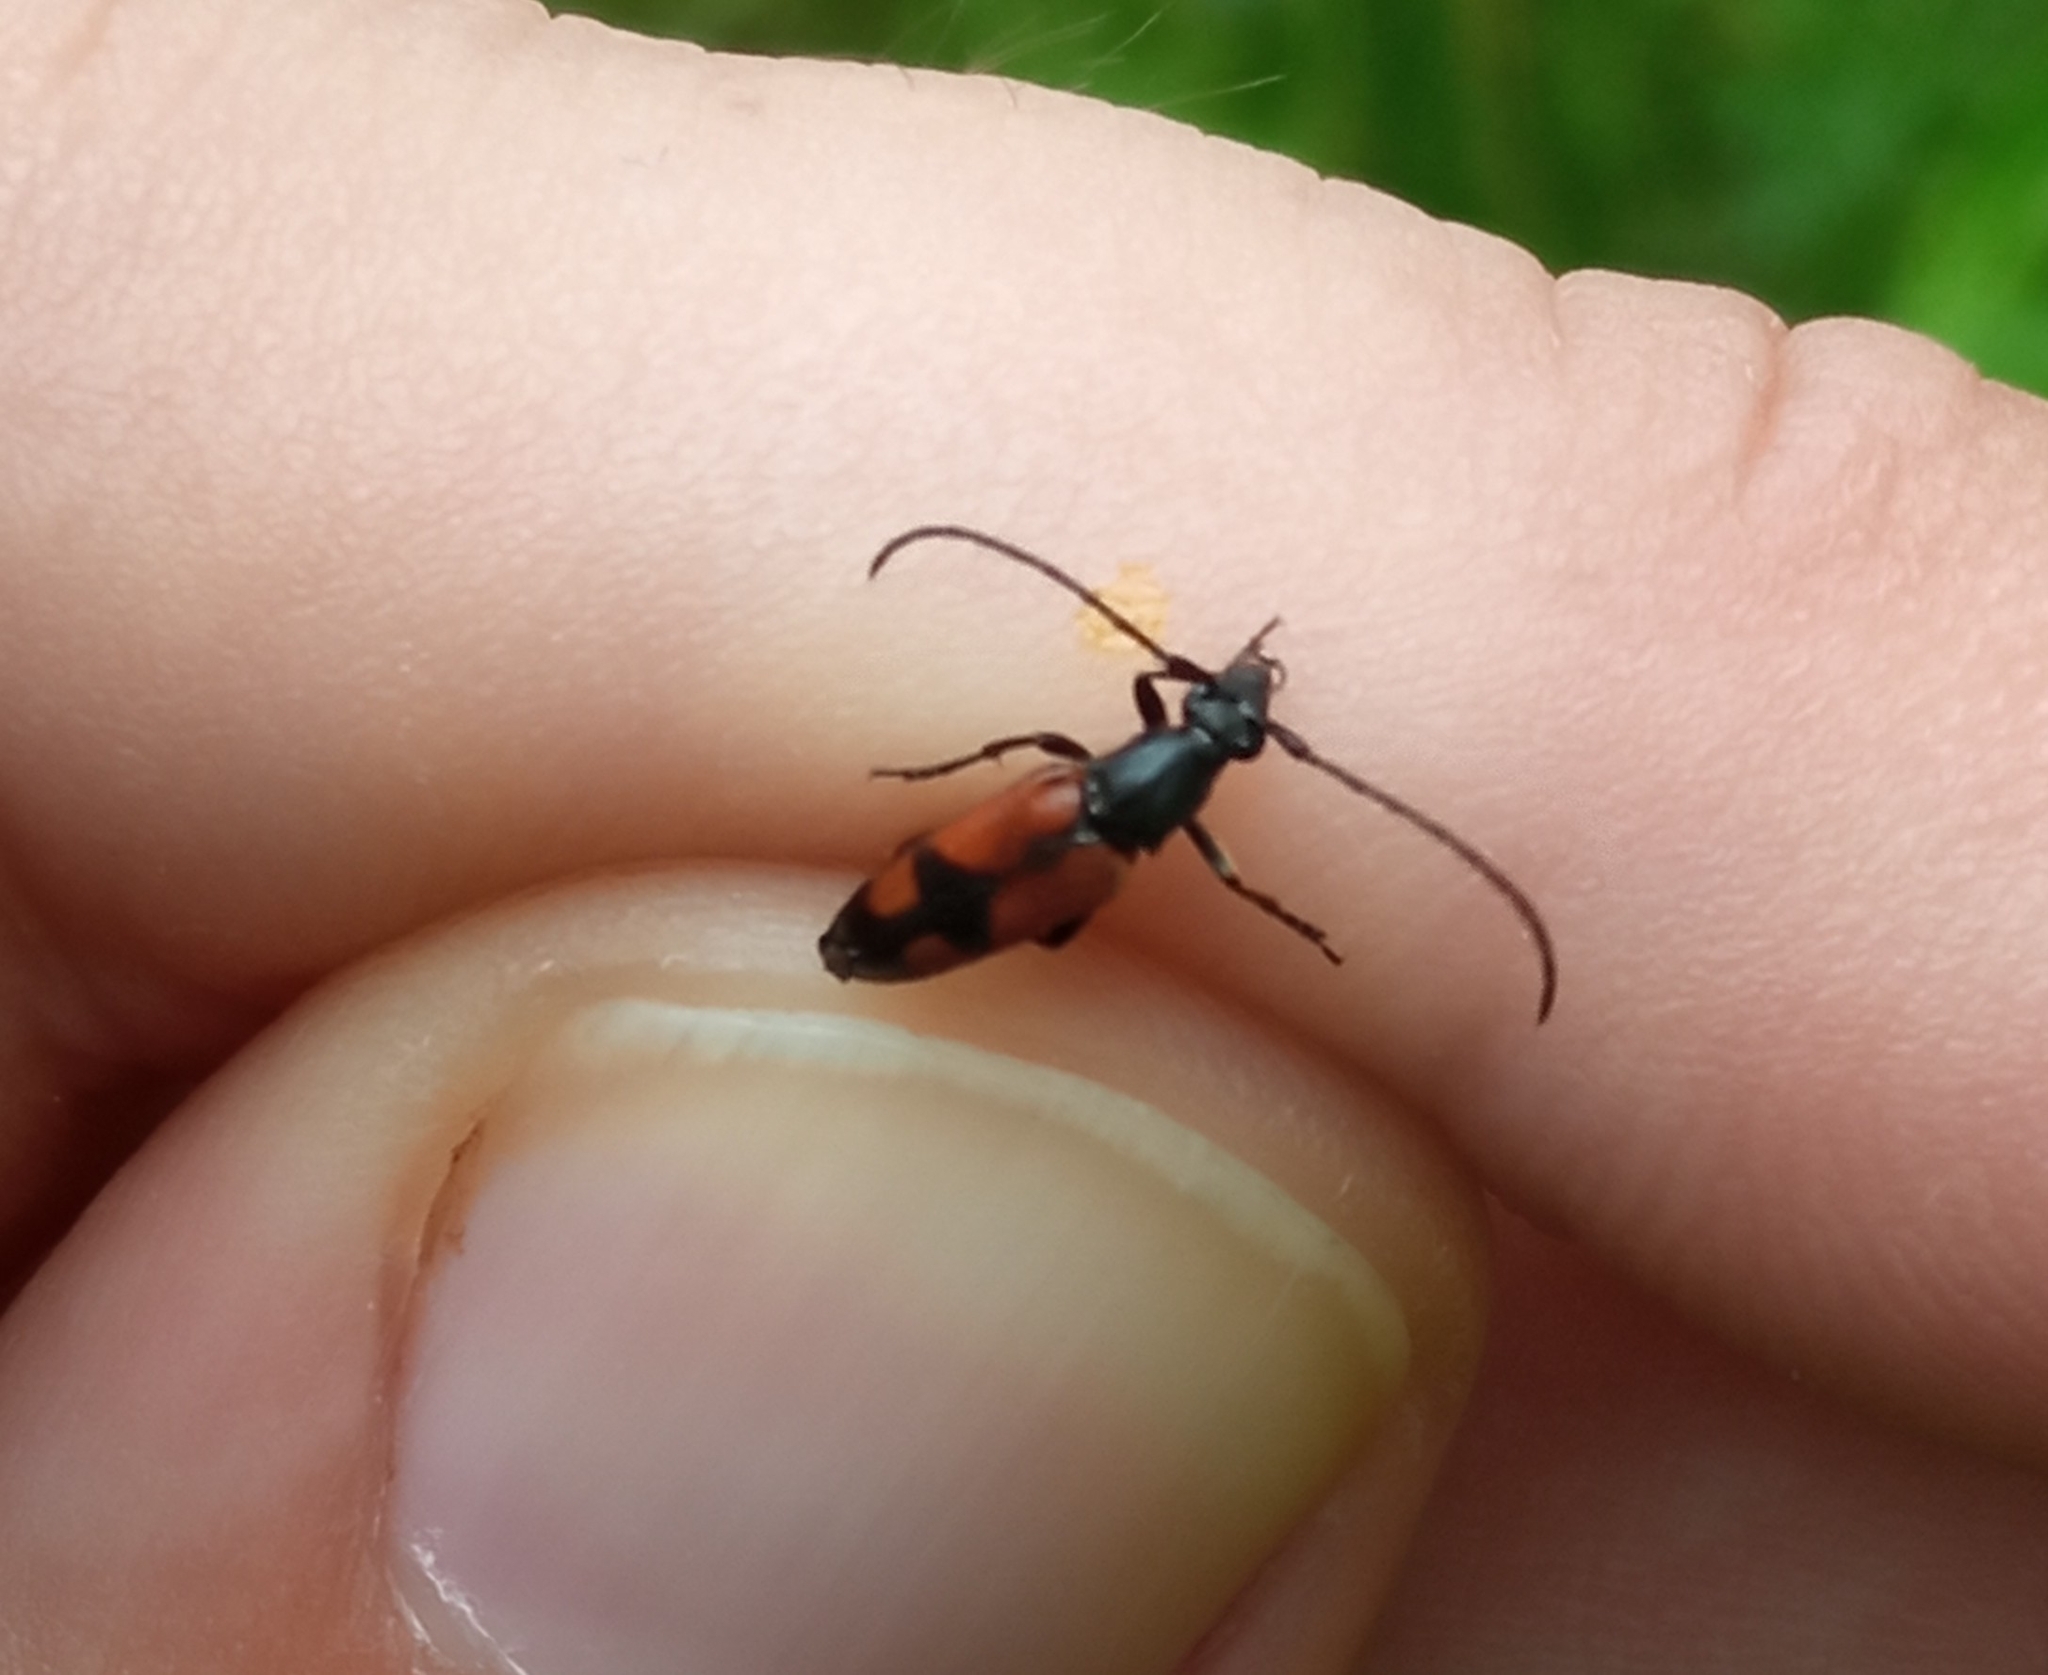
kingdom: Animalia
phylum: Arthropoda
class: Insecta
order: Coleoptera
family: Cerambycidae
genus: Stenurella
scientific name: Stenurella bifasciata
